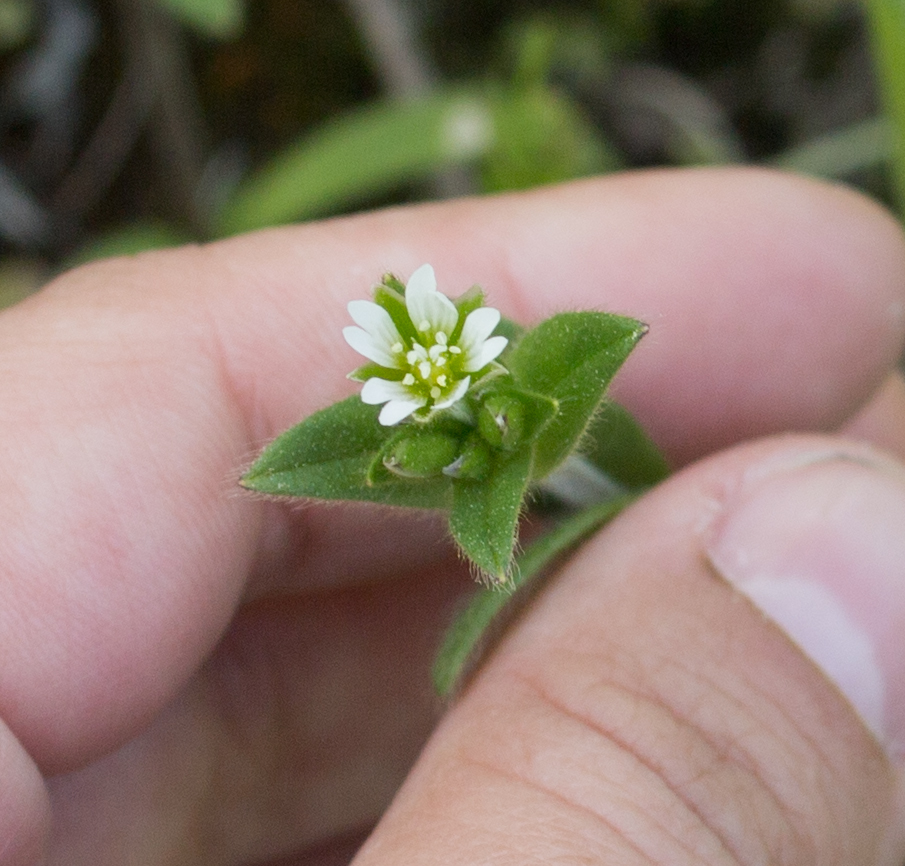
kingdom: Plantae
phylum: Tracheophyta
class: Magnoliopsida
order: Caryophyllales
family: Caryophyllaceae
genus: Cerastium
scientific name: Cerastium holosteoides
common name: Big chickweed
